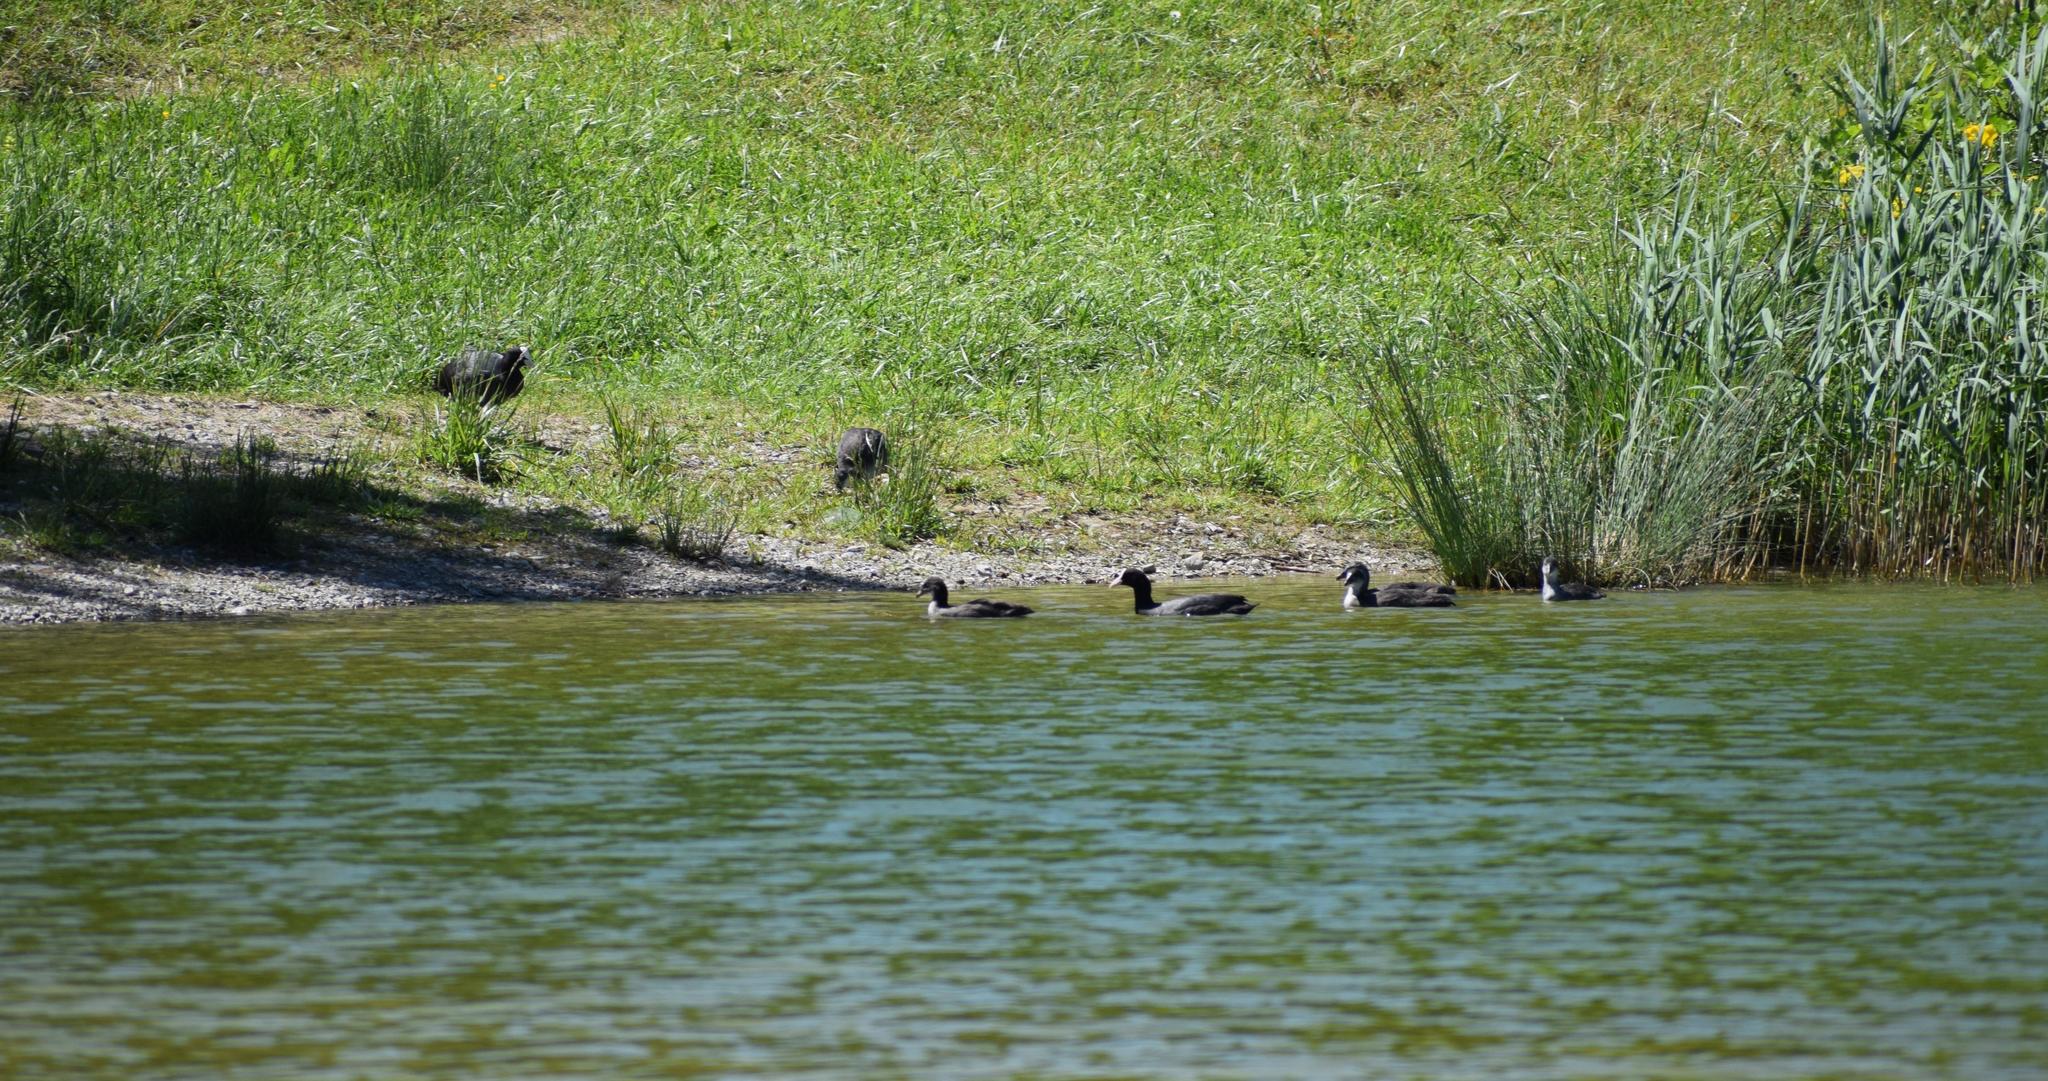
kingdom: Animalia
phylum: Chordata
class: Aves
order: Gruiformes
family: Rallidae
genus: Fulica
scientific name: Fulica atra
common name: Eurasian coot
